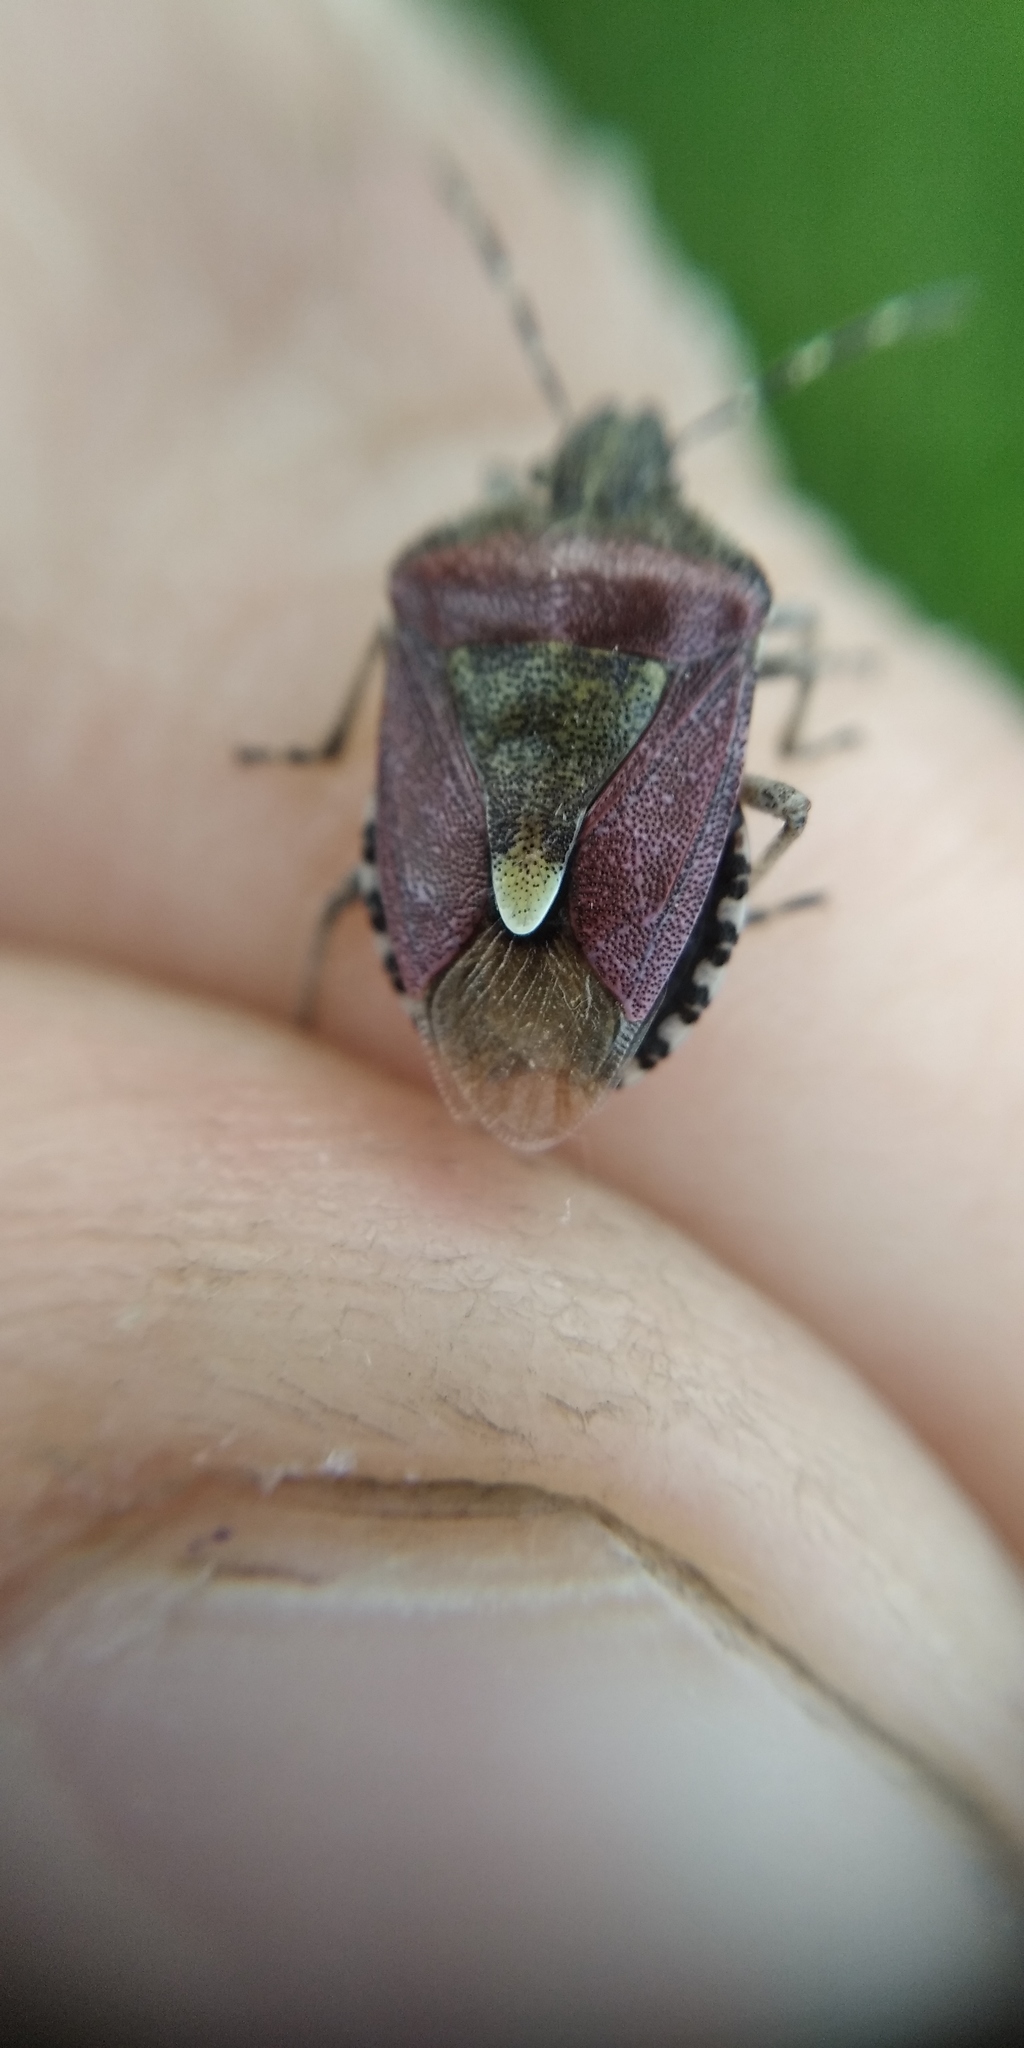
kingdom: Animalia
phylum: Arthropoda
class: Insecta
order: Hemiptera
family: Pentatomidae
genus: Dolycoris
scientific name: Dolycoris baccarum
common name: Sloe bug
